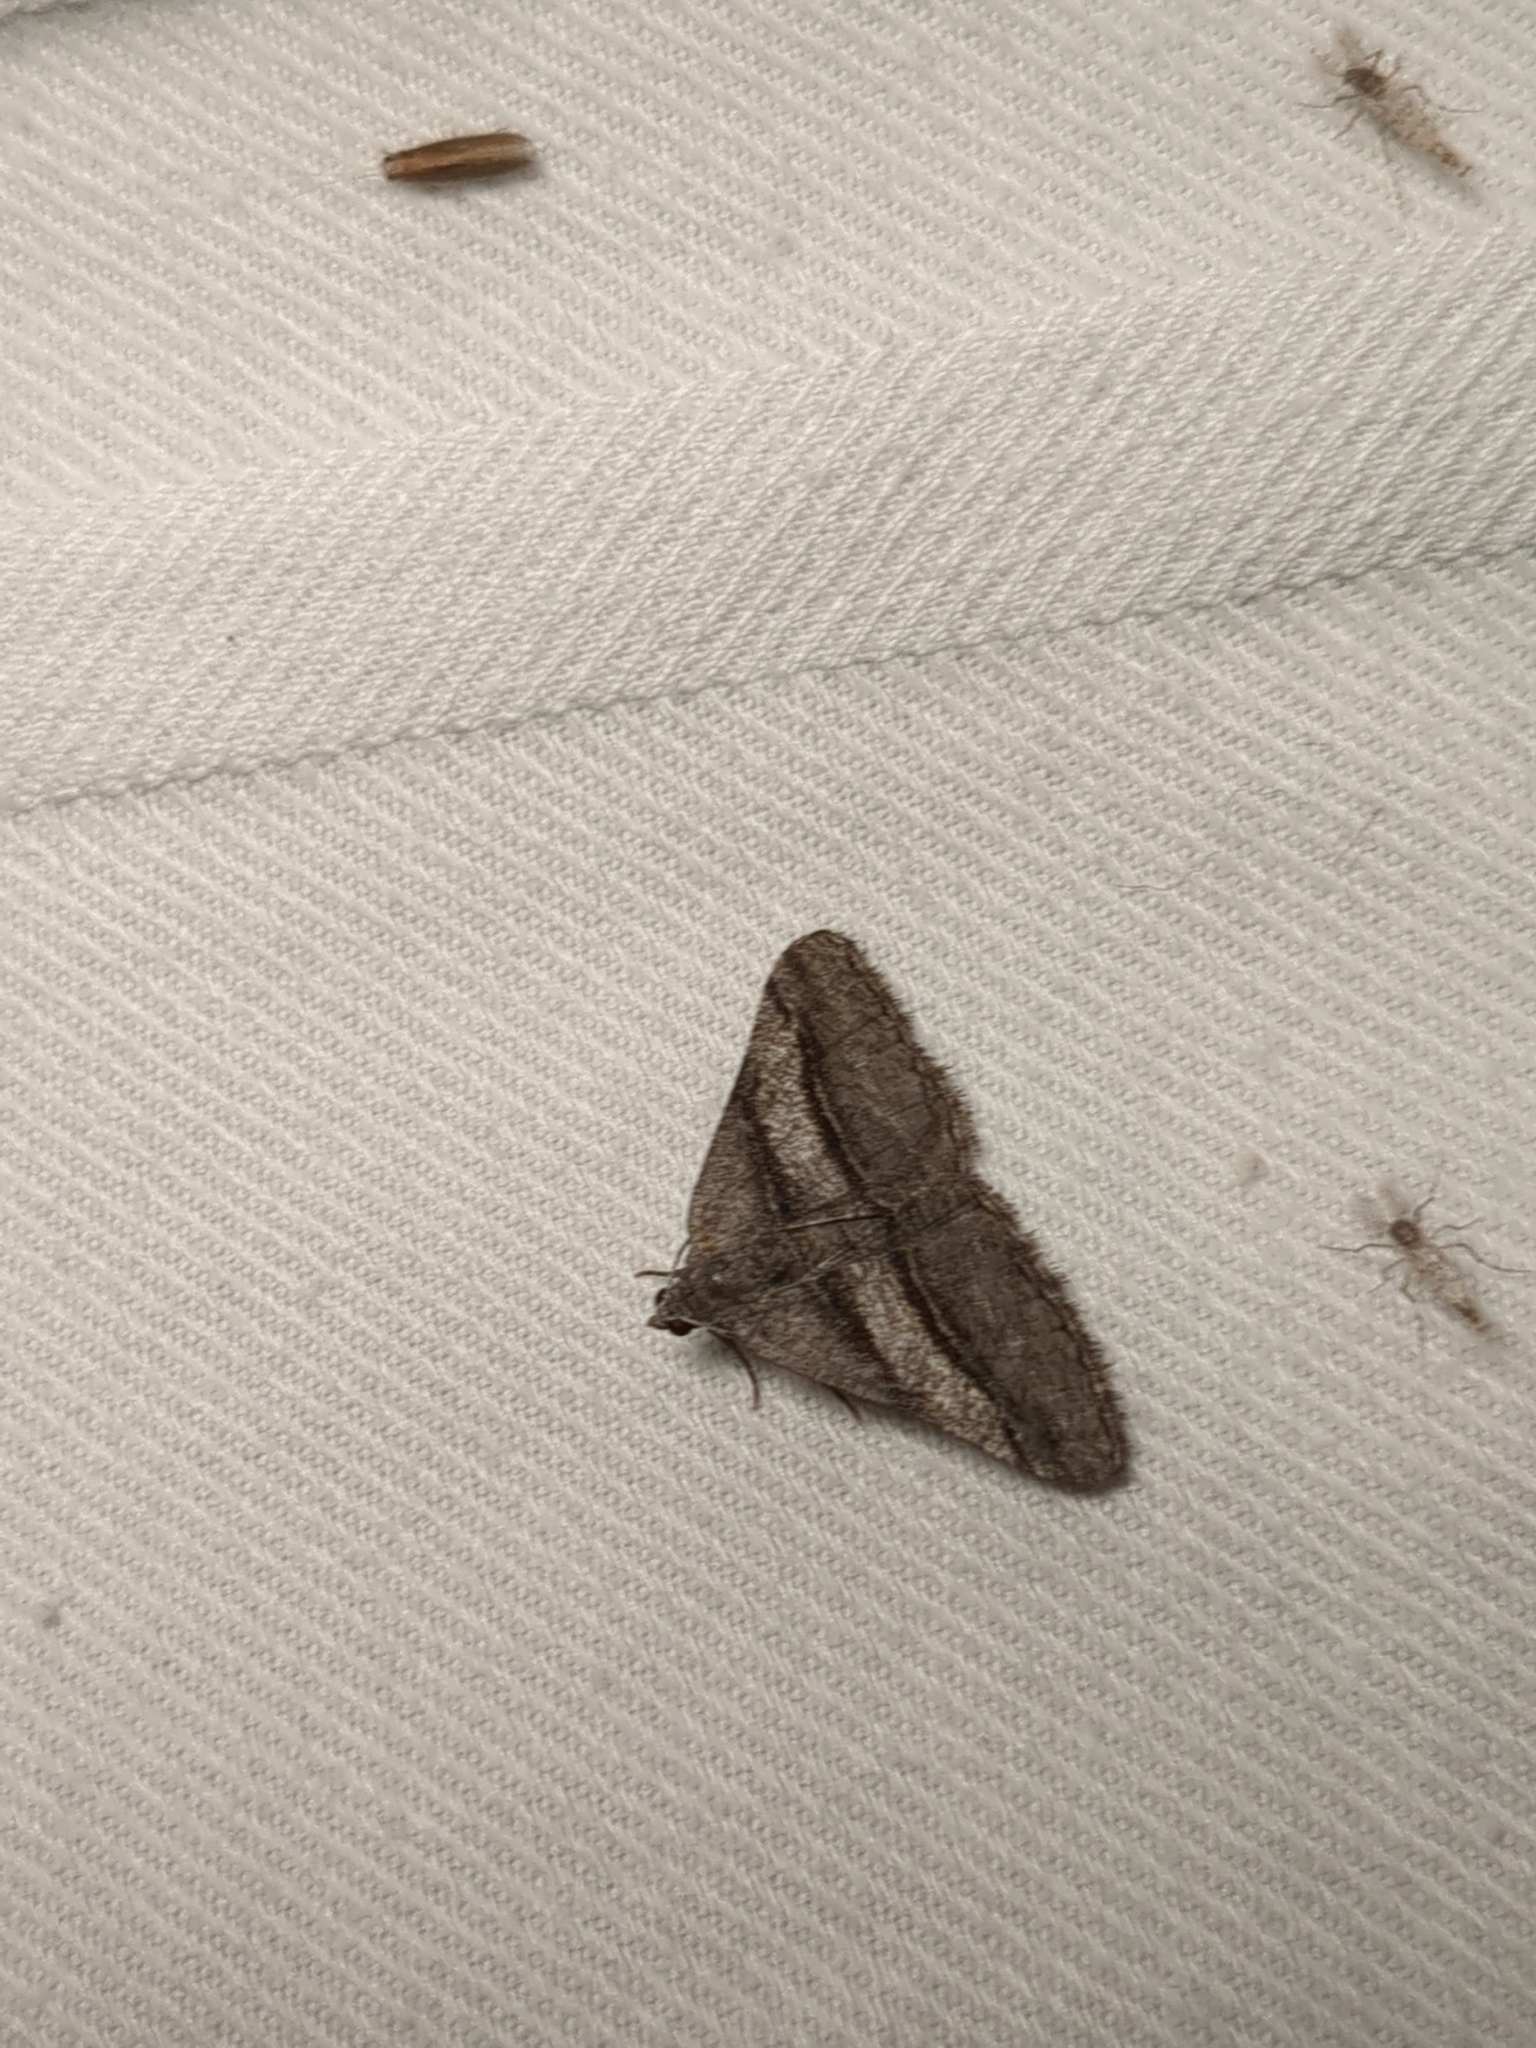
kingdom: Animalia
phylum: Arthropoda
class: Insecta
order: Lepidoptera
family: Geometridae
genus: Digrammia
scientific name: Digrammia atrofasciata
